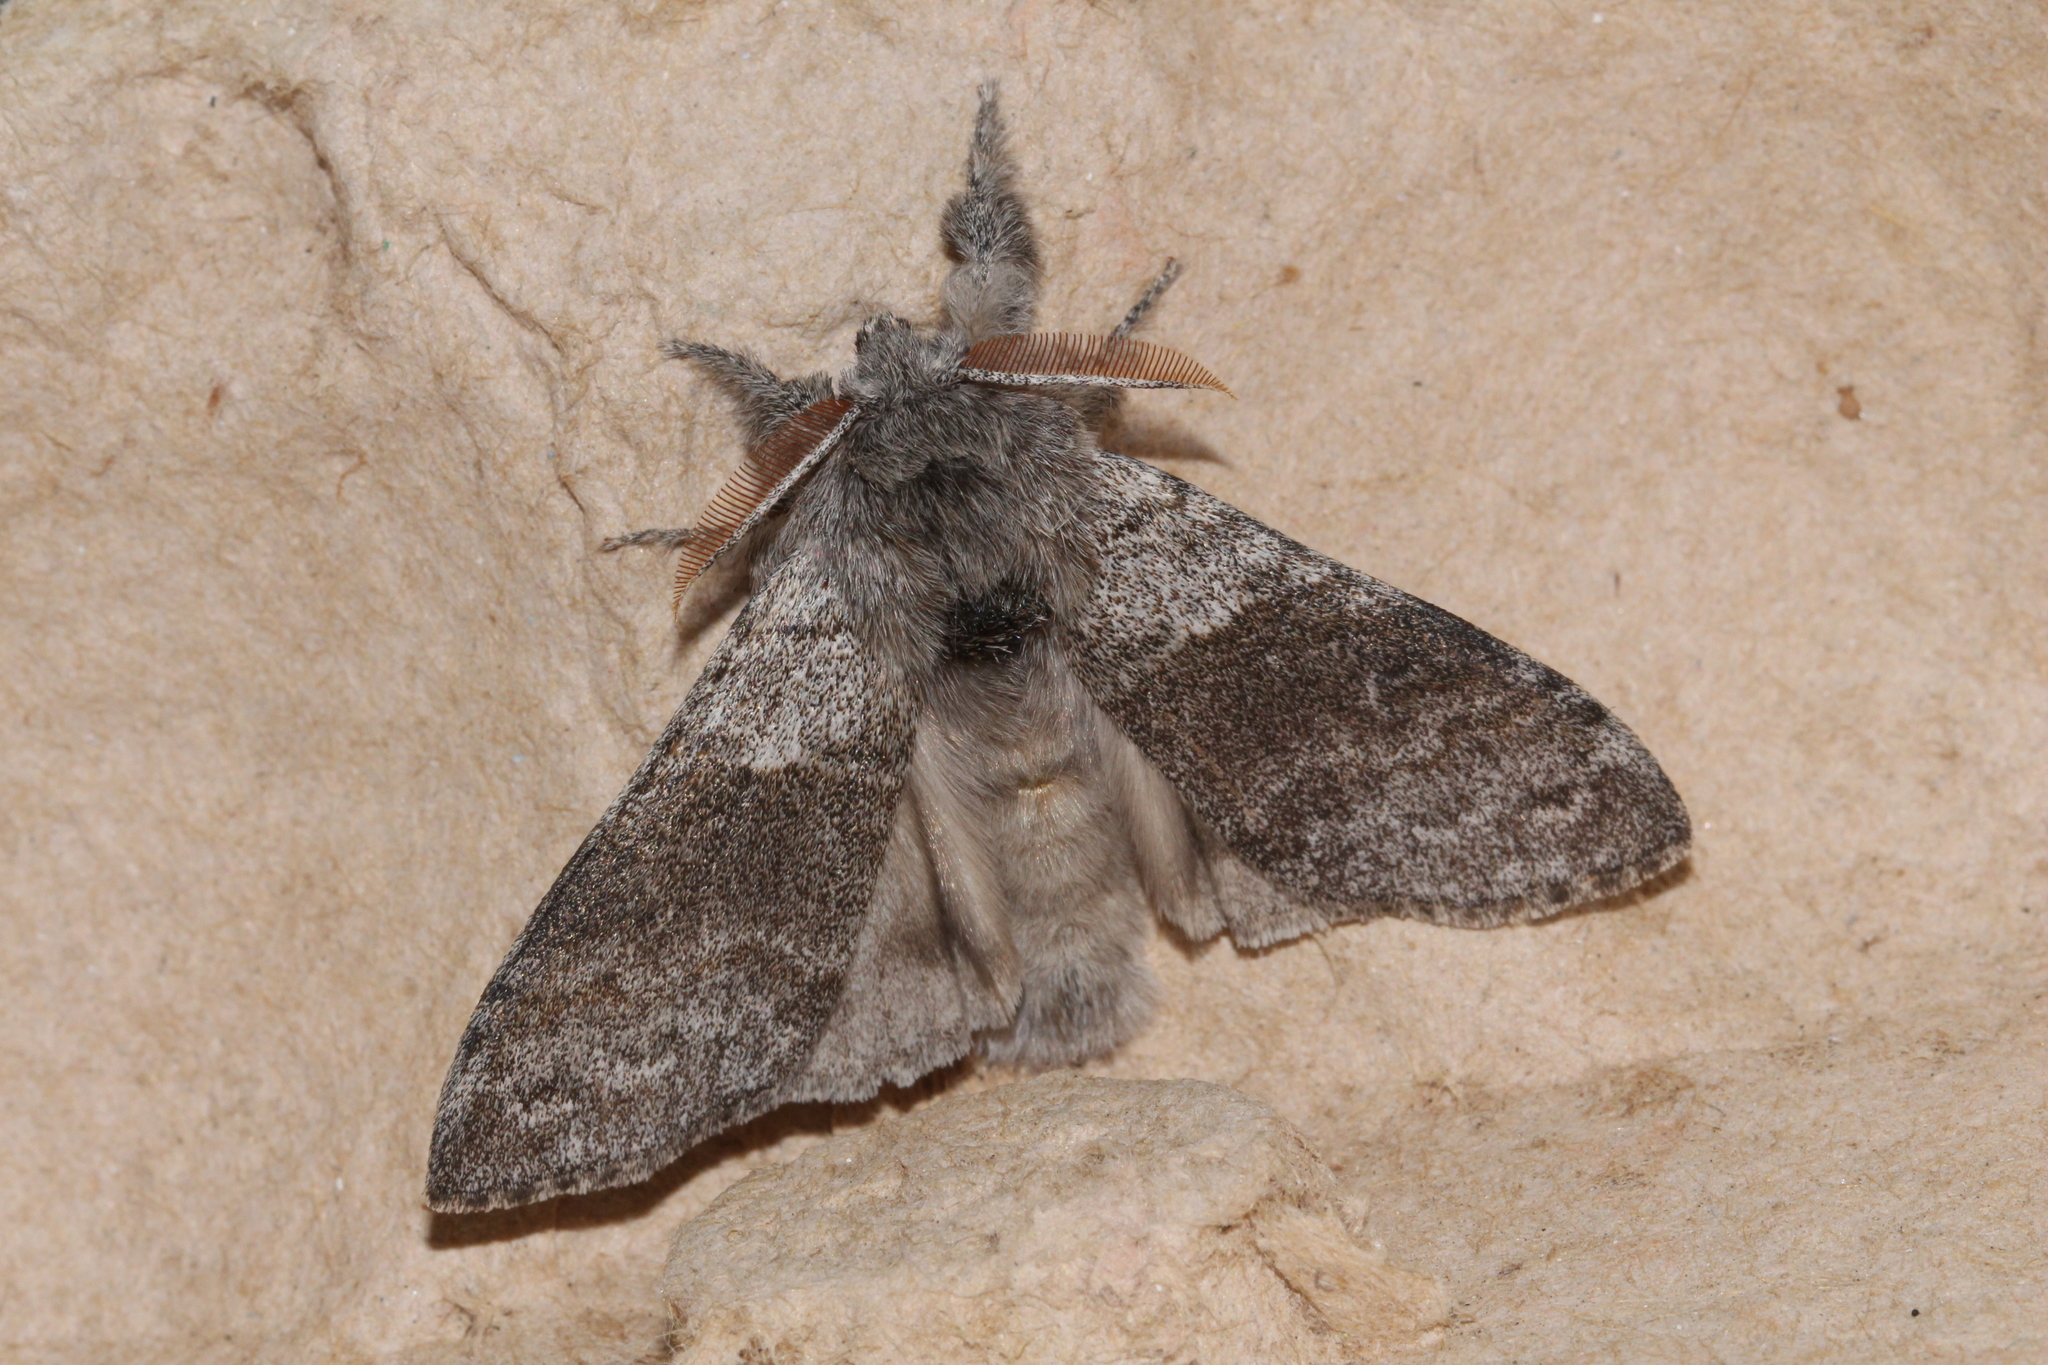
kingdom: Animalia
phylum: Arthropoda
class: Insecta
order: Lepidoptera
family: Erebidae
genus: Calliteara
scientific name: Calliteara pudibunda
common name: Pale tussock
